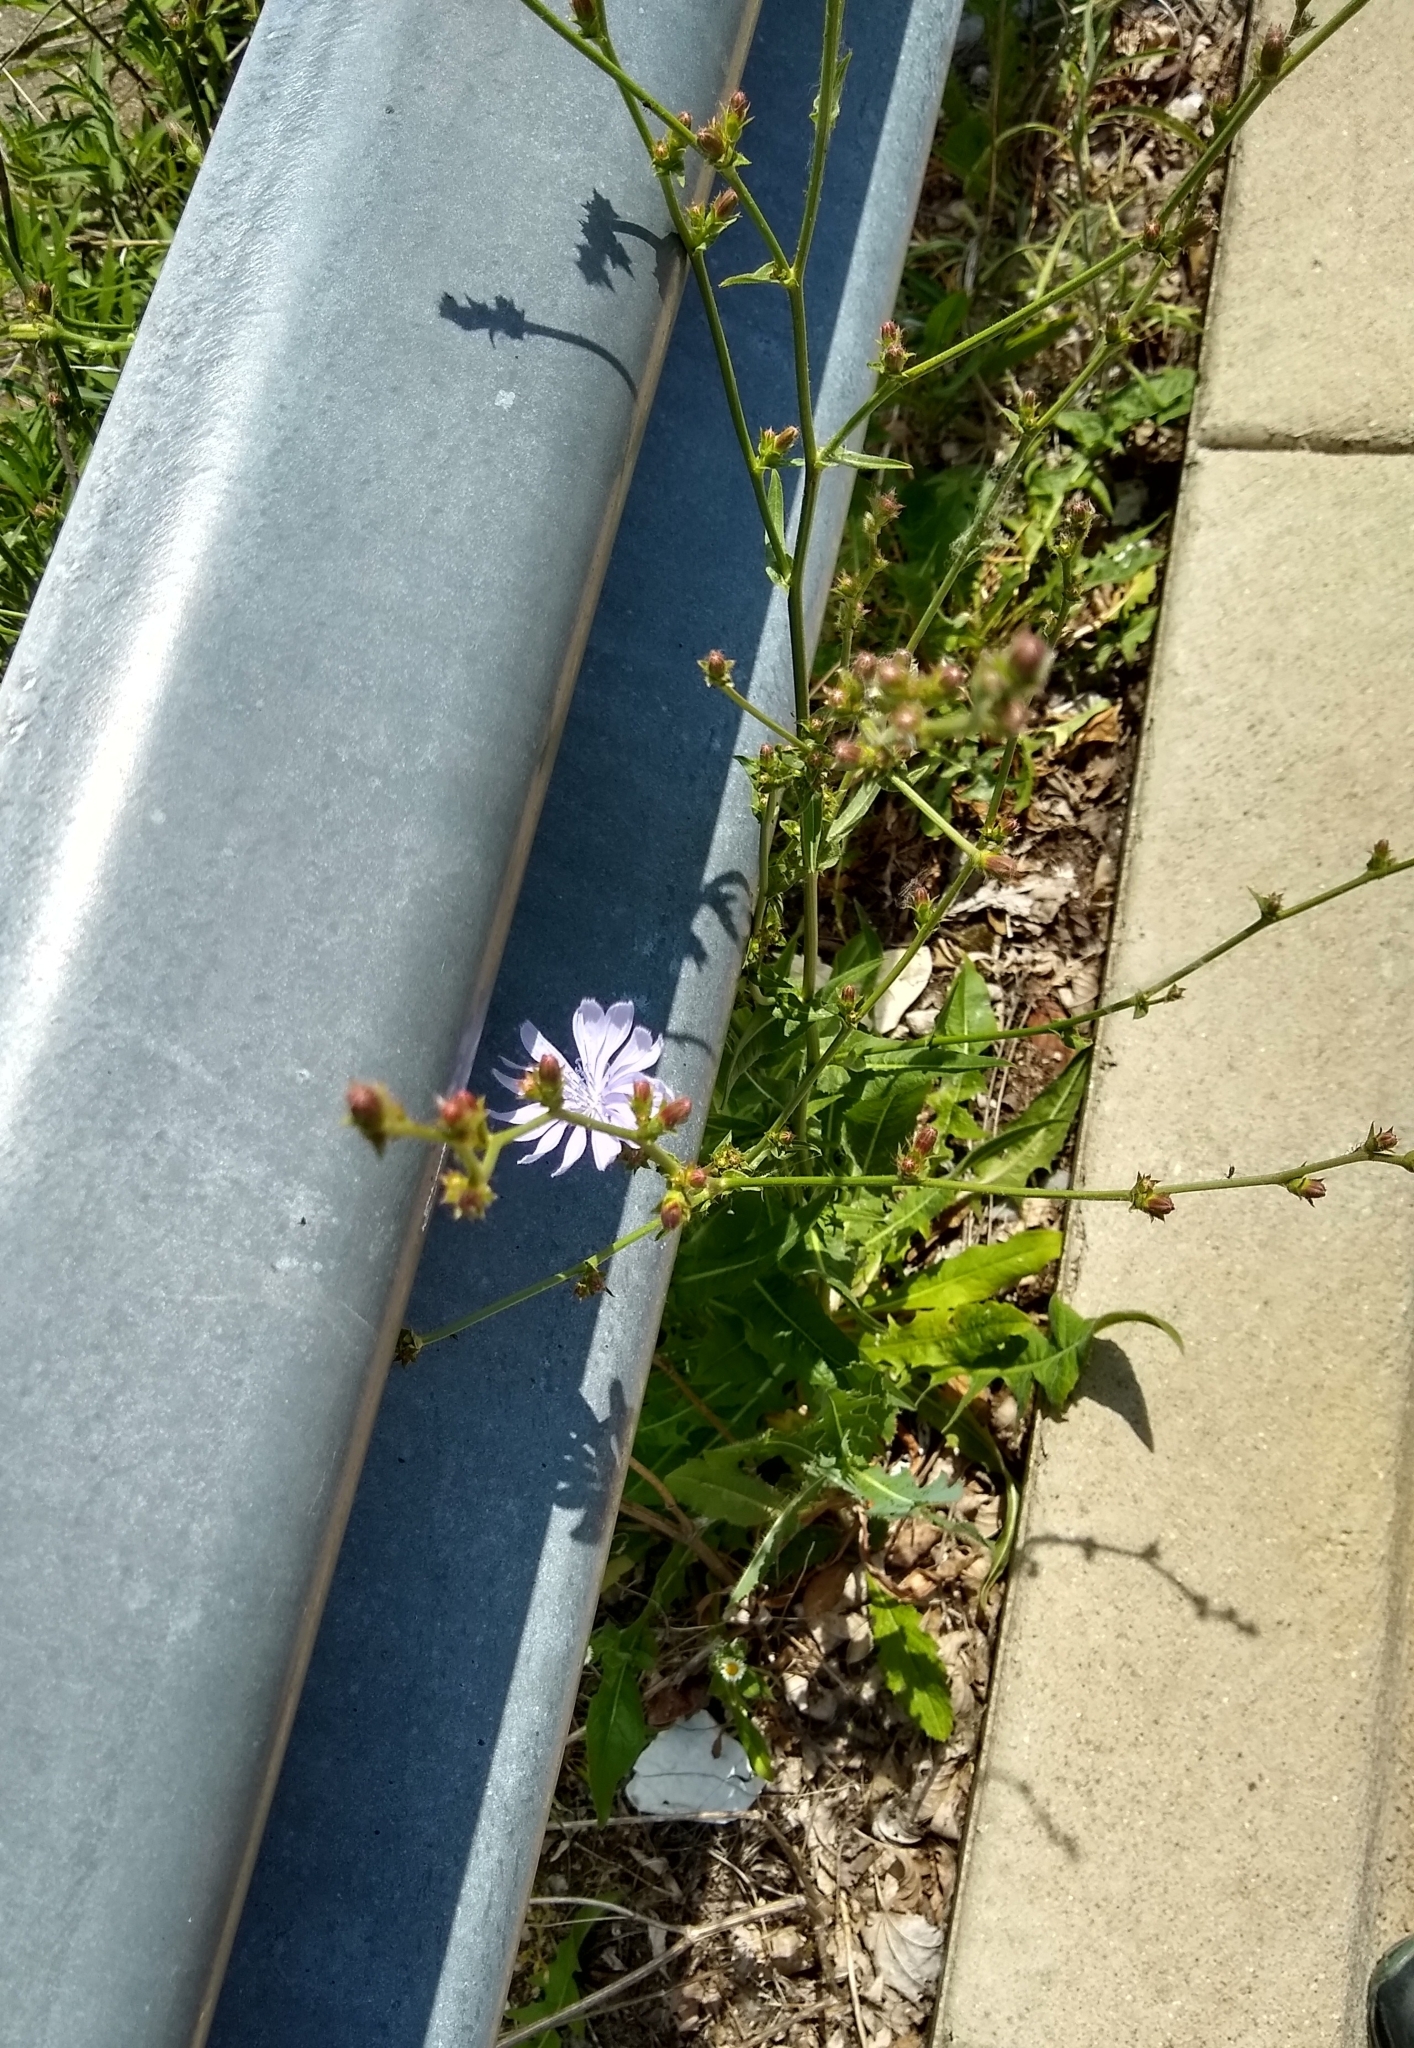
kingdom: Plantae
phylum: Tracheophyta
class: Magnoliopsida
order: Asterales
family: Asteraceae
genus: Cichorium
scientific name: Cichorium intybus
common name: Chicory
